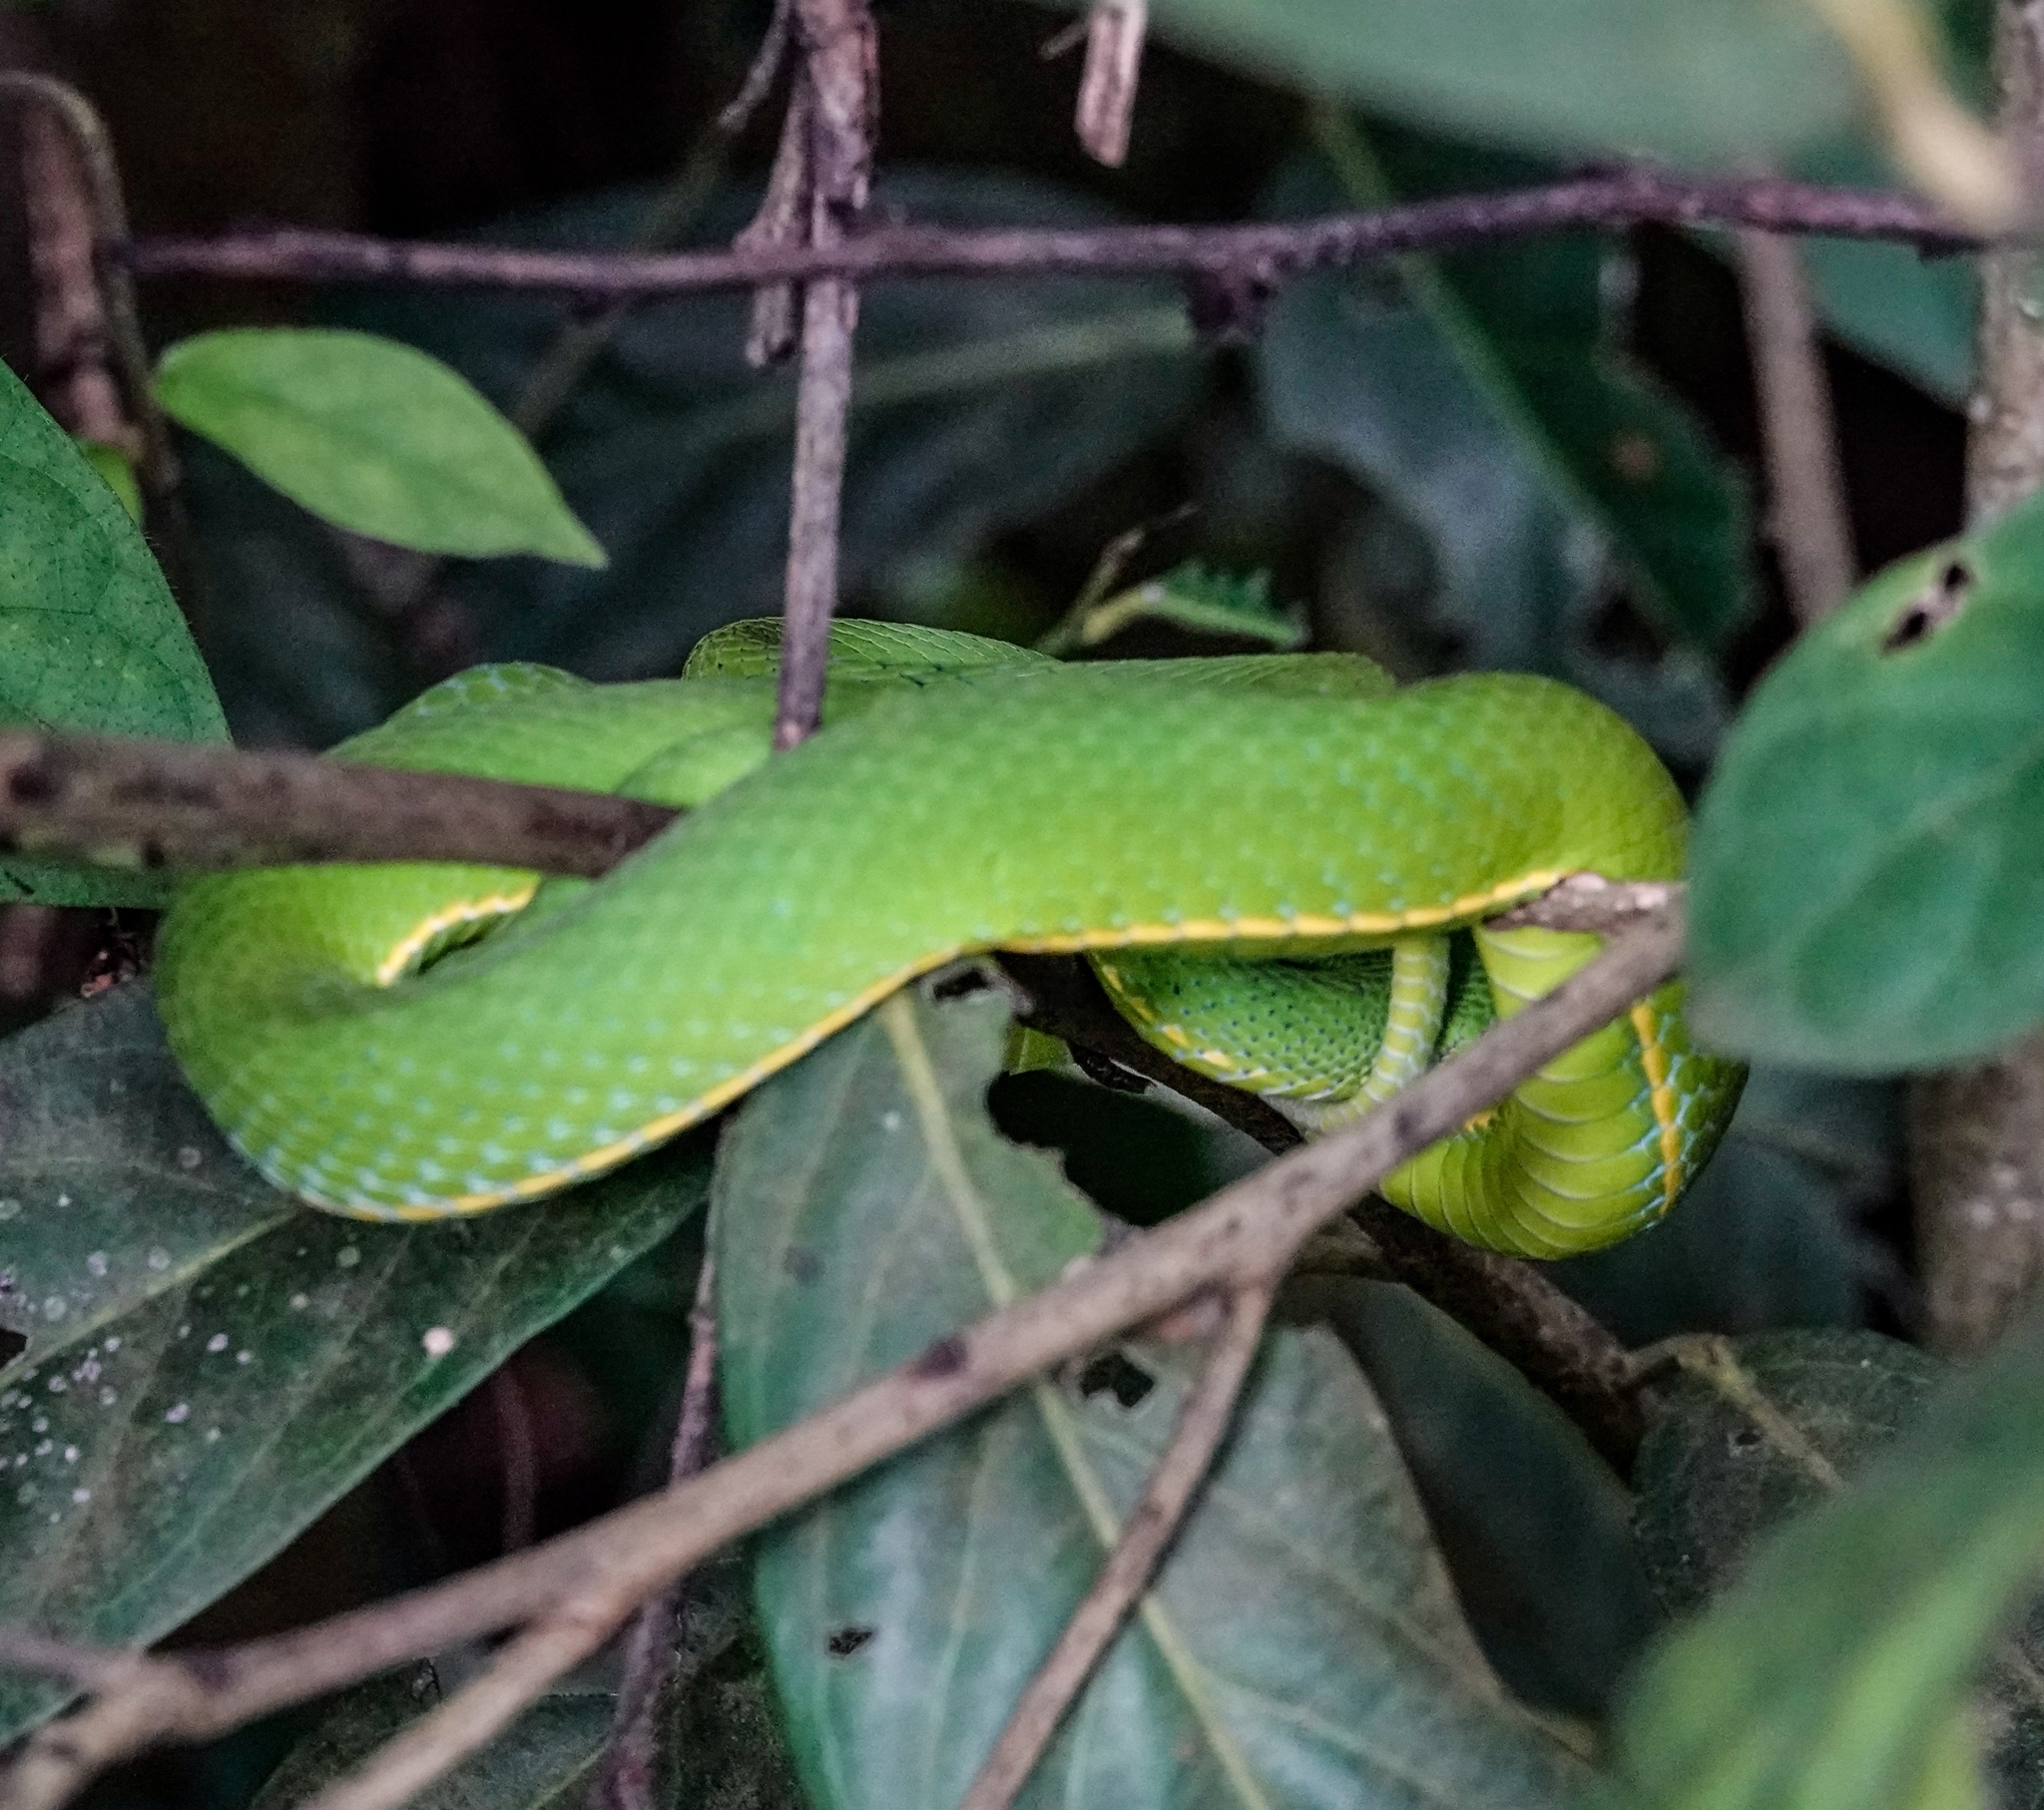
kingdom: Animalia
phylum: Chordata
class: Squamata
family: Viperidae
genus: Trimeresurus
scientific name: Trimeresurus vogeli
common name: Vogel's pit viper
